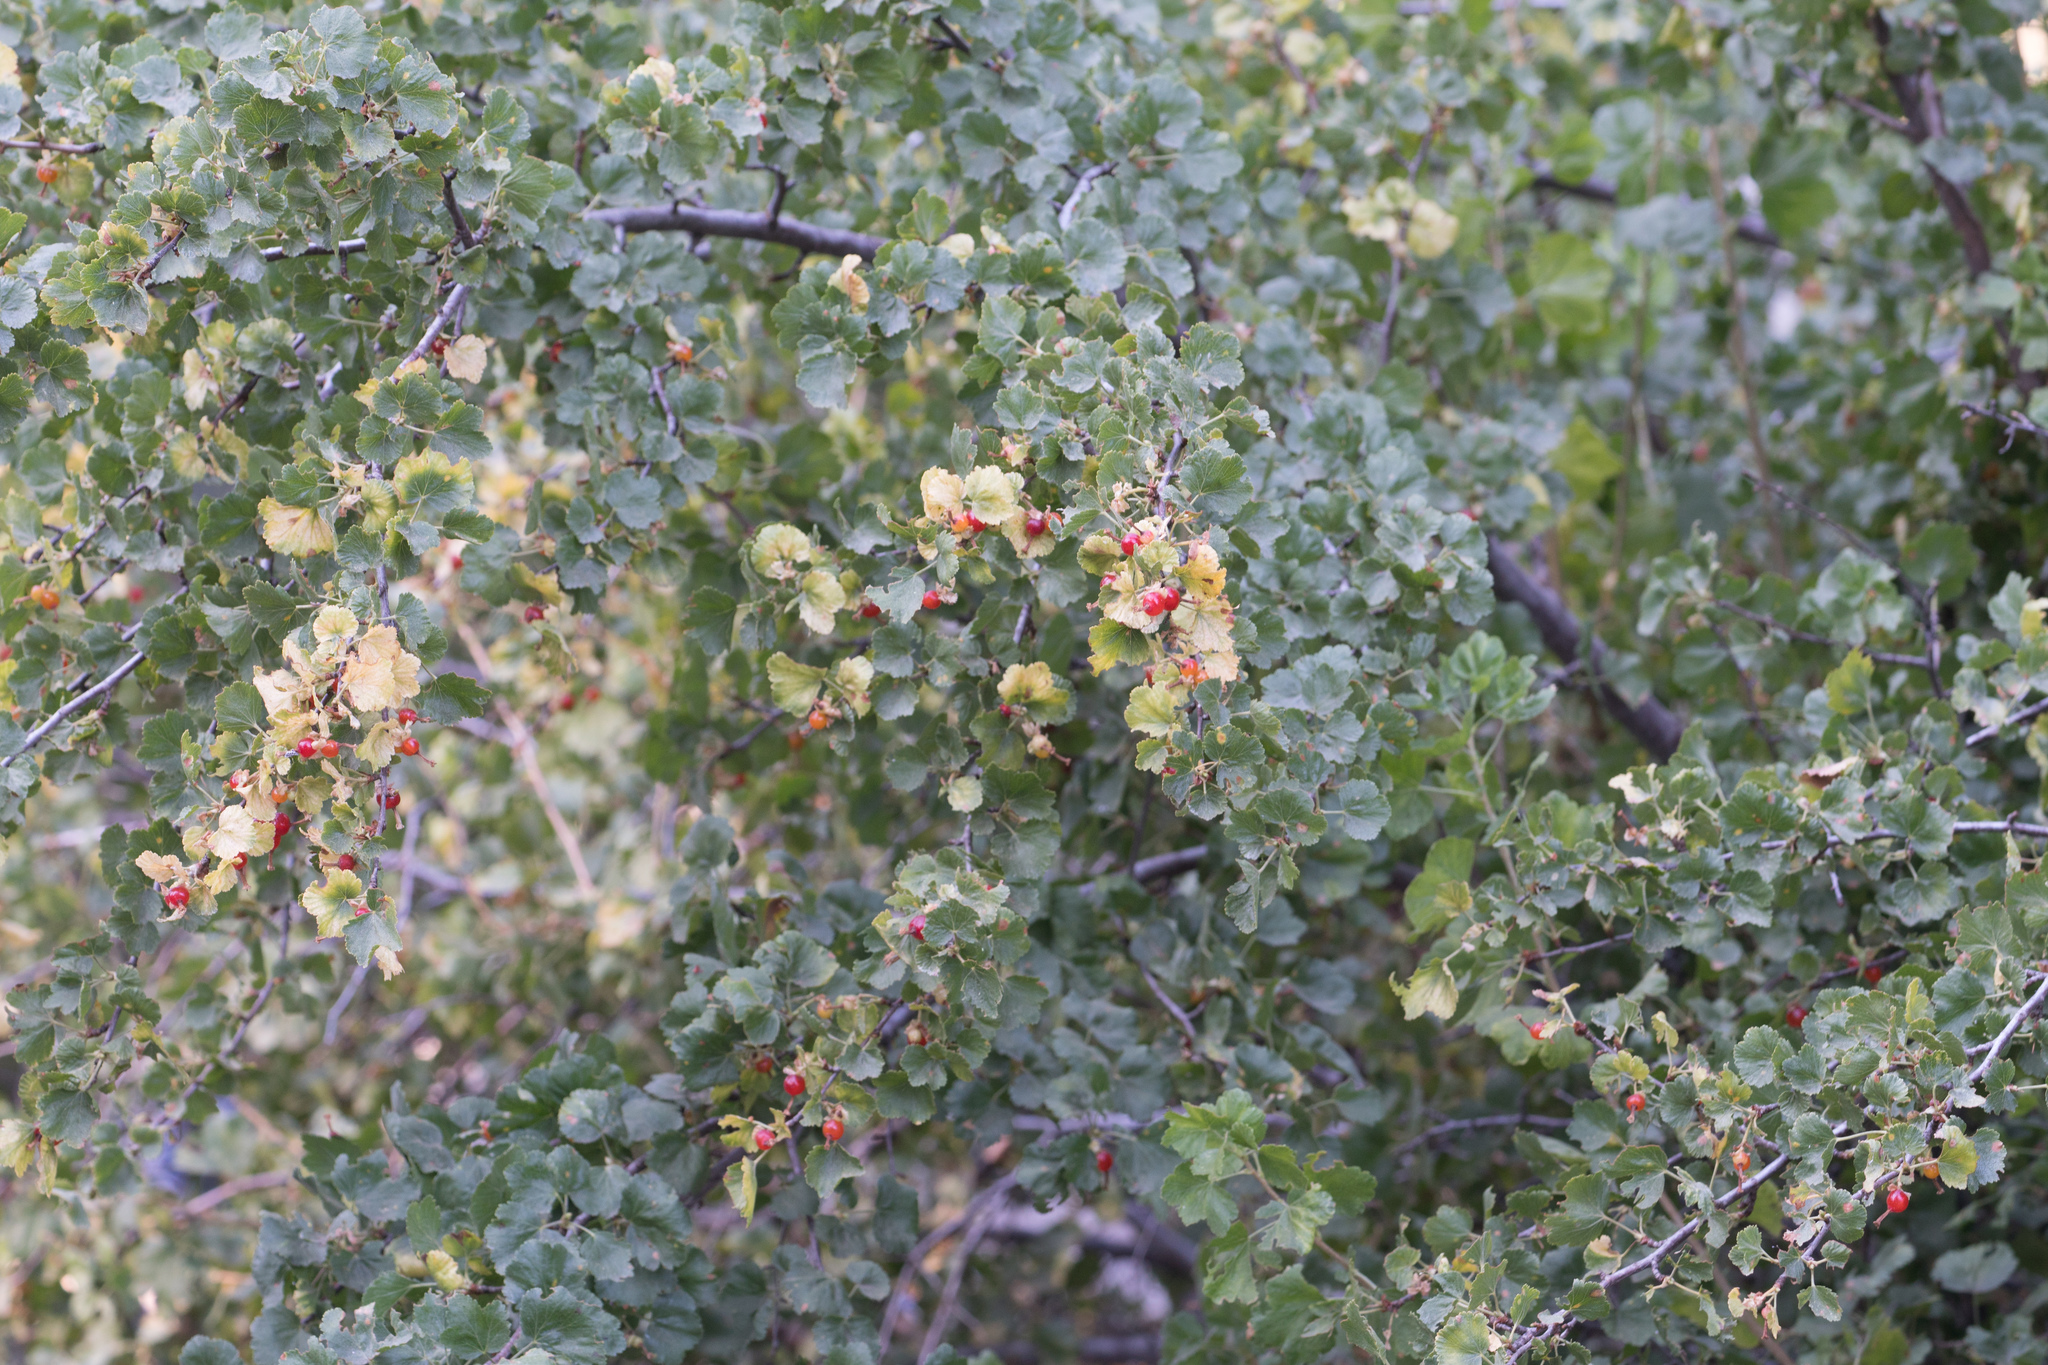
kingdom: Plantae
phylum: Tracheophyta
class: Magnoliopsida
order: Saxifragales
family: Grossulariaceae
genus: Ribes
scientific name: Ribes cereum
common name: Wax currant
